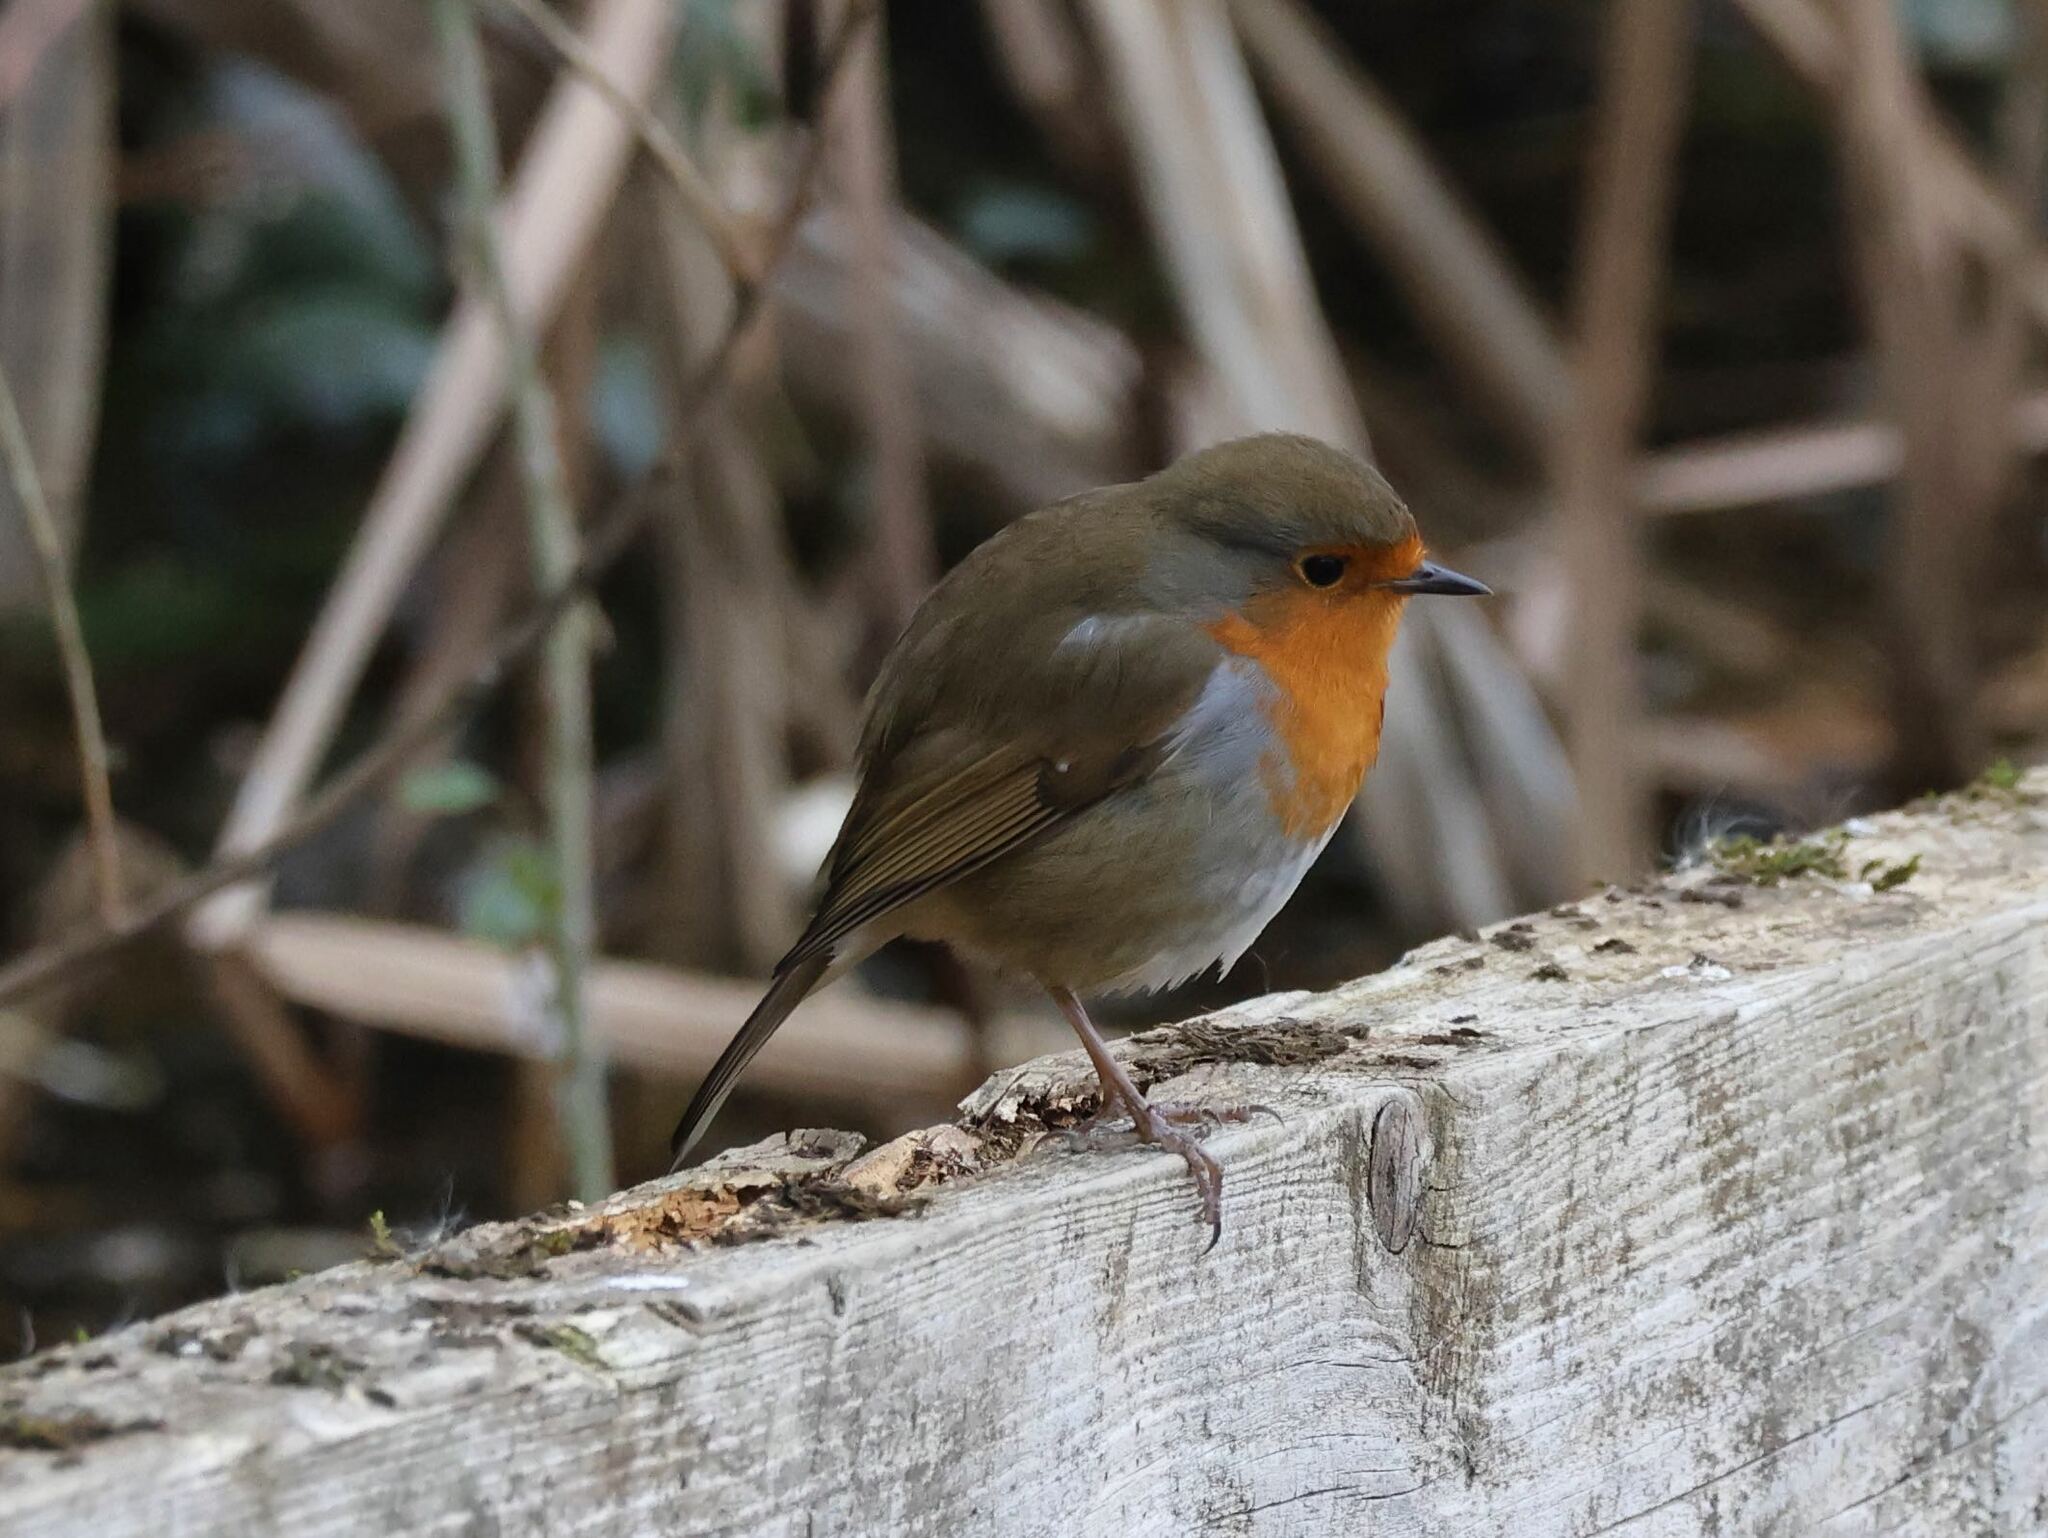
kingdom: Animalia
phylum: Chordata
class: Aves
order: Passeriformes
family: Muscicapidae
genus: Erithacus
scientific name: Erithacus rubecula
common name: European robin
